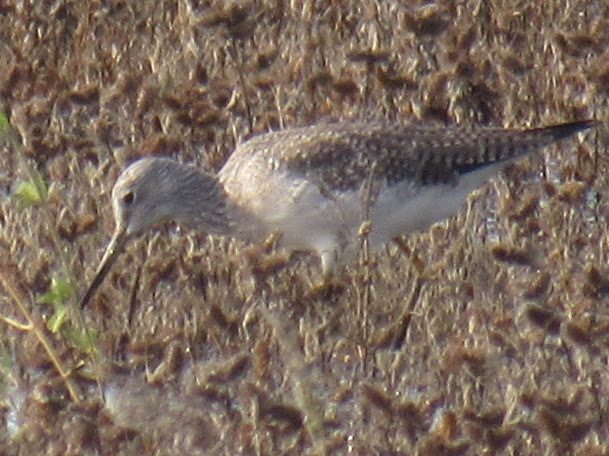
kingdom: Animalia
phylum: Chordata
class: Aves
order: Charadriiformes
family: Scolopacidae
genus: Tringa
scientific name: Tringa melanoleuca
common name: Greater yellowlegs
